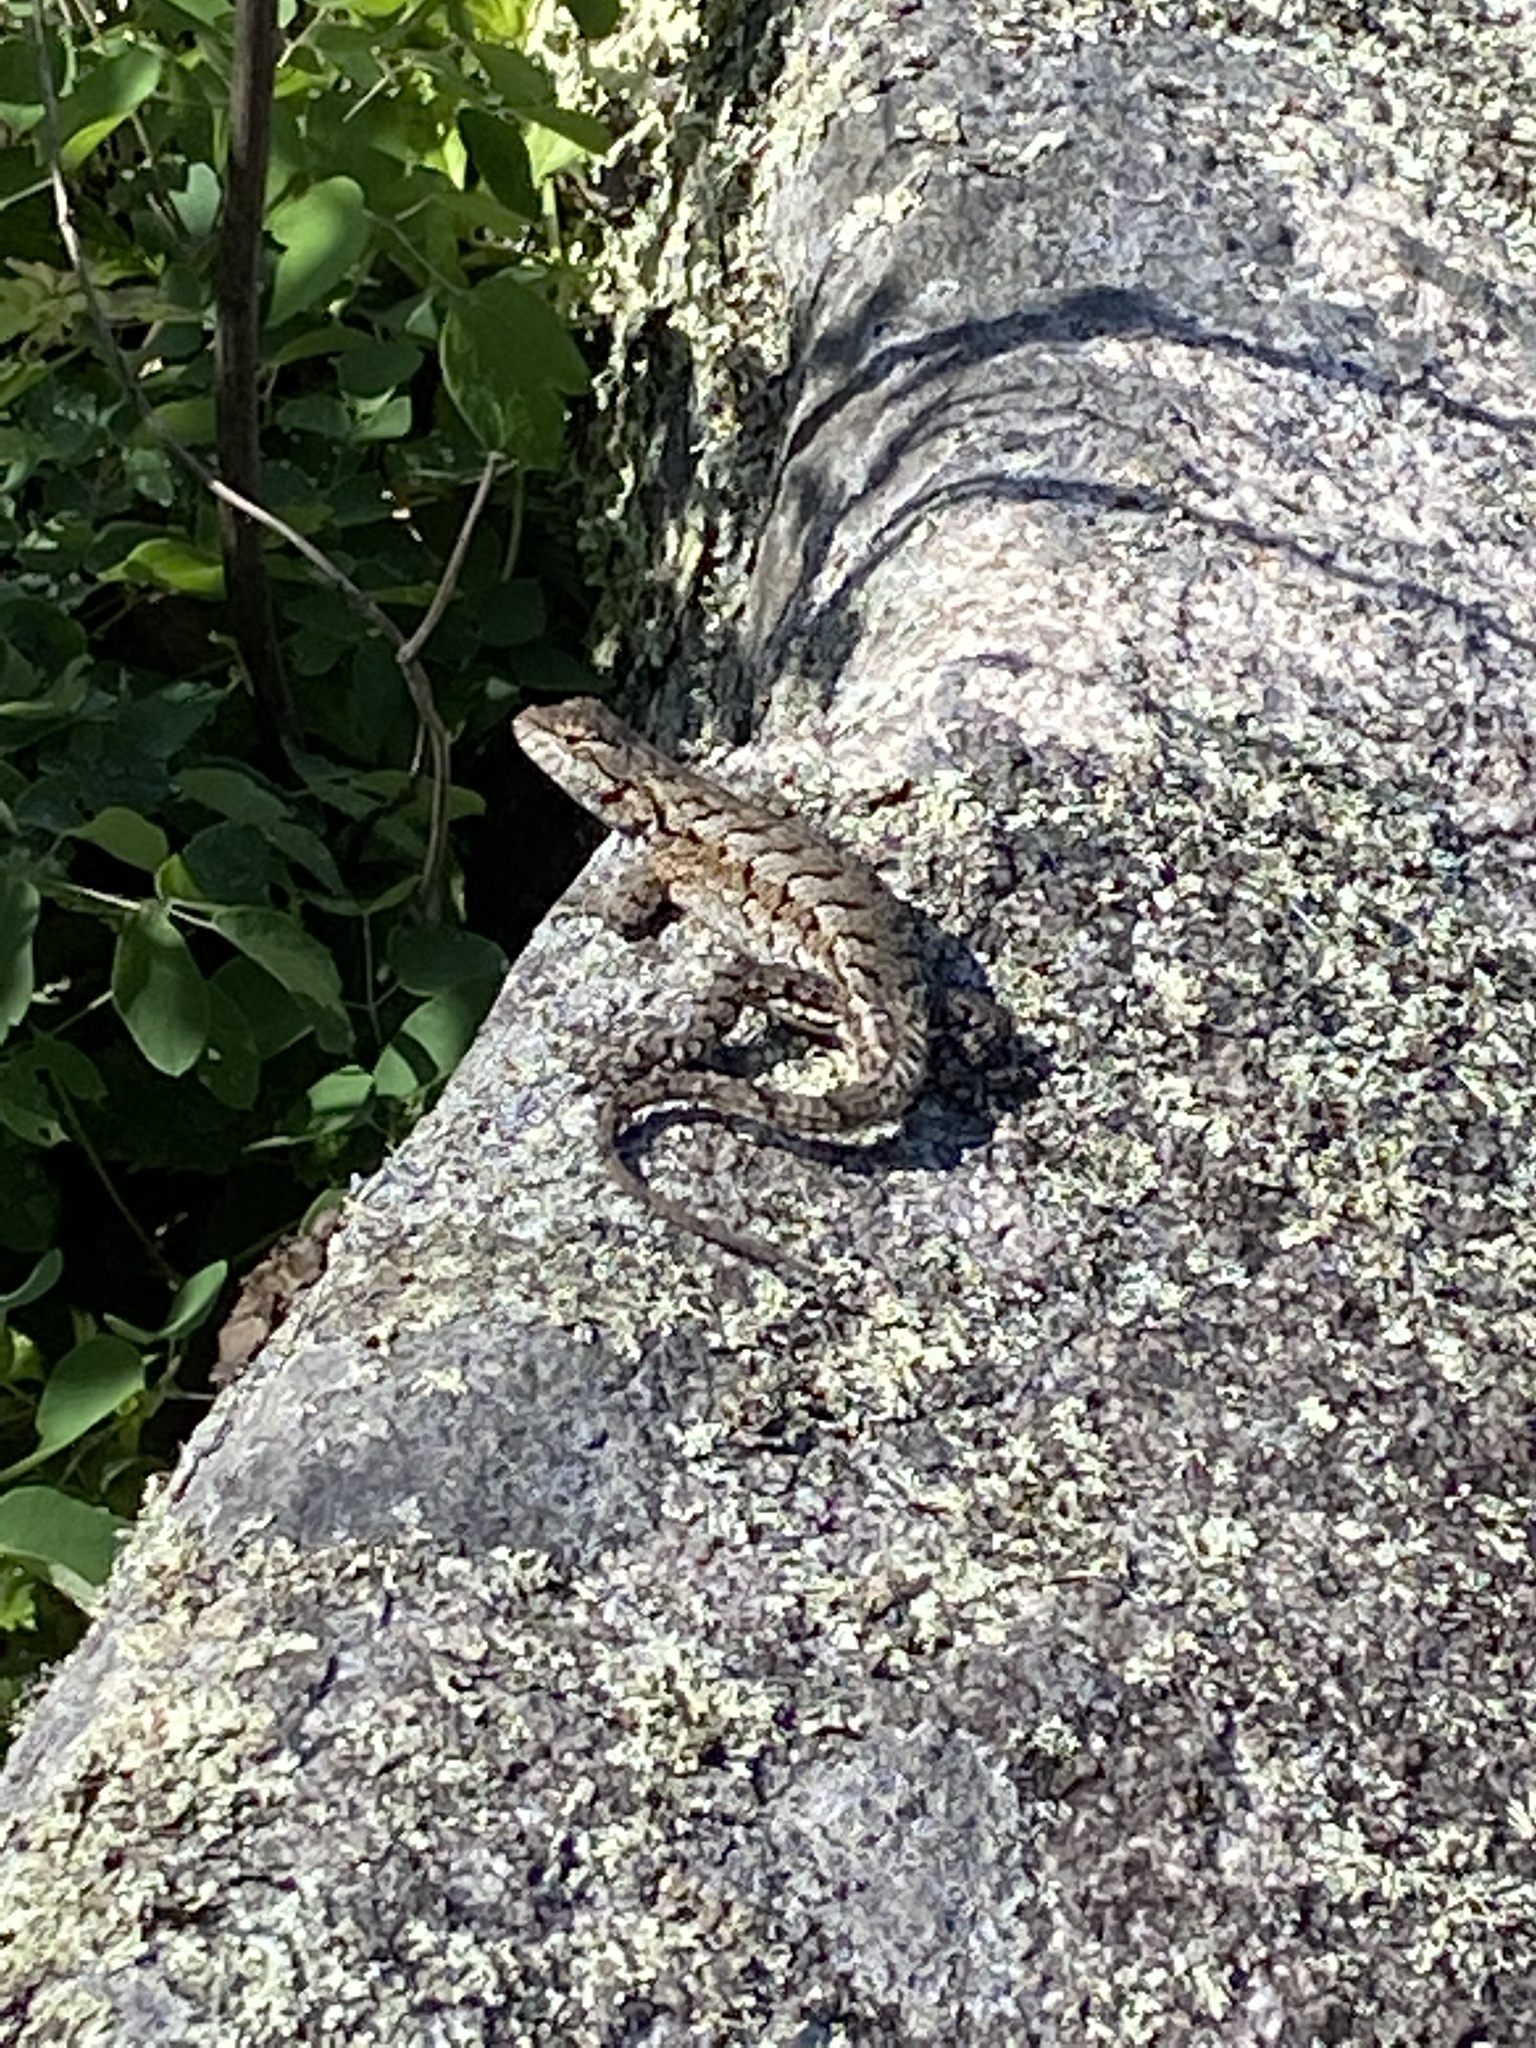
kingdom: Animalia
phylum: Chordata
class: Squamata
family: Phrynosomatidae
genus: Sceloporus
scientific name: Sceloporus undulatus
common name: Eastern fence lizard
